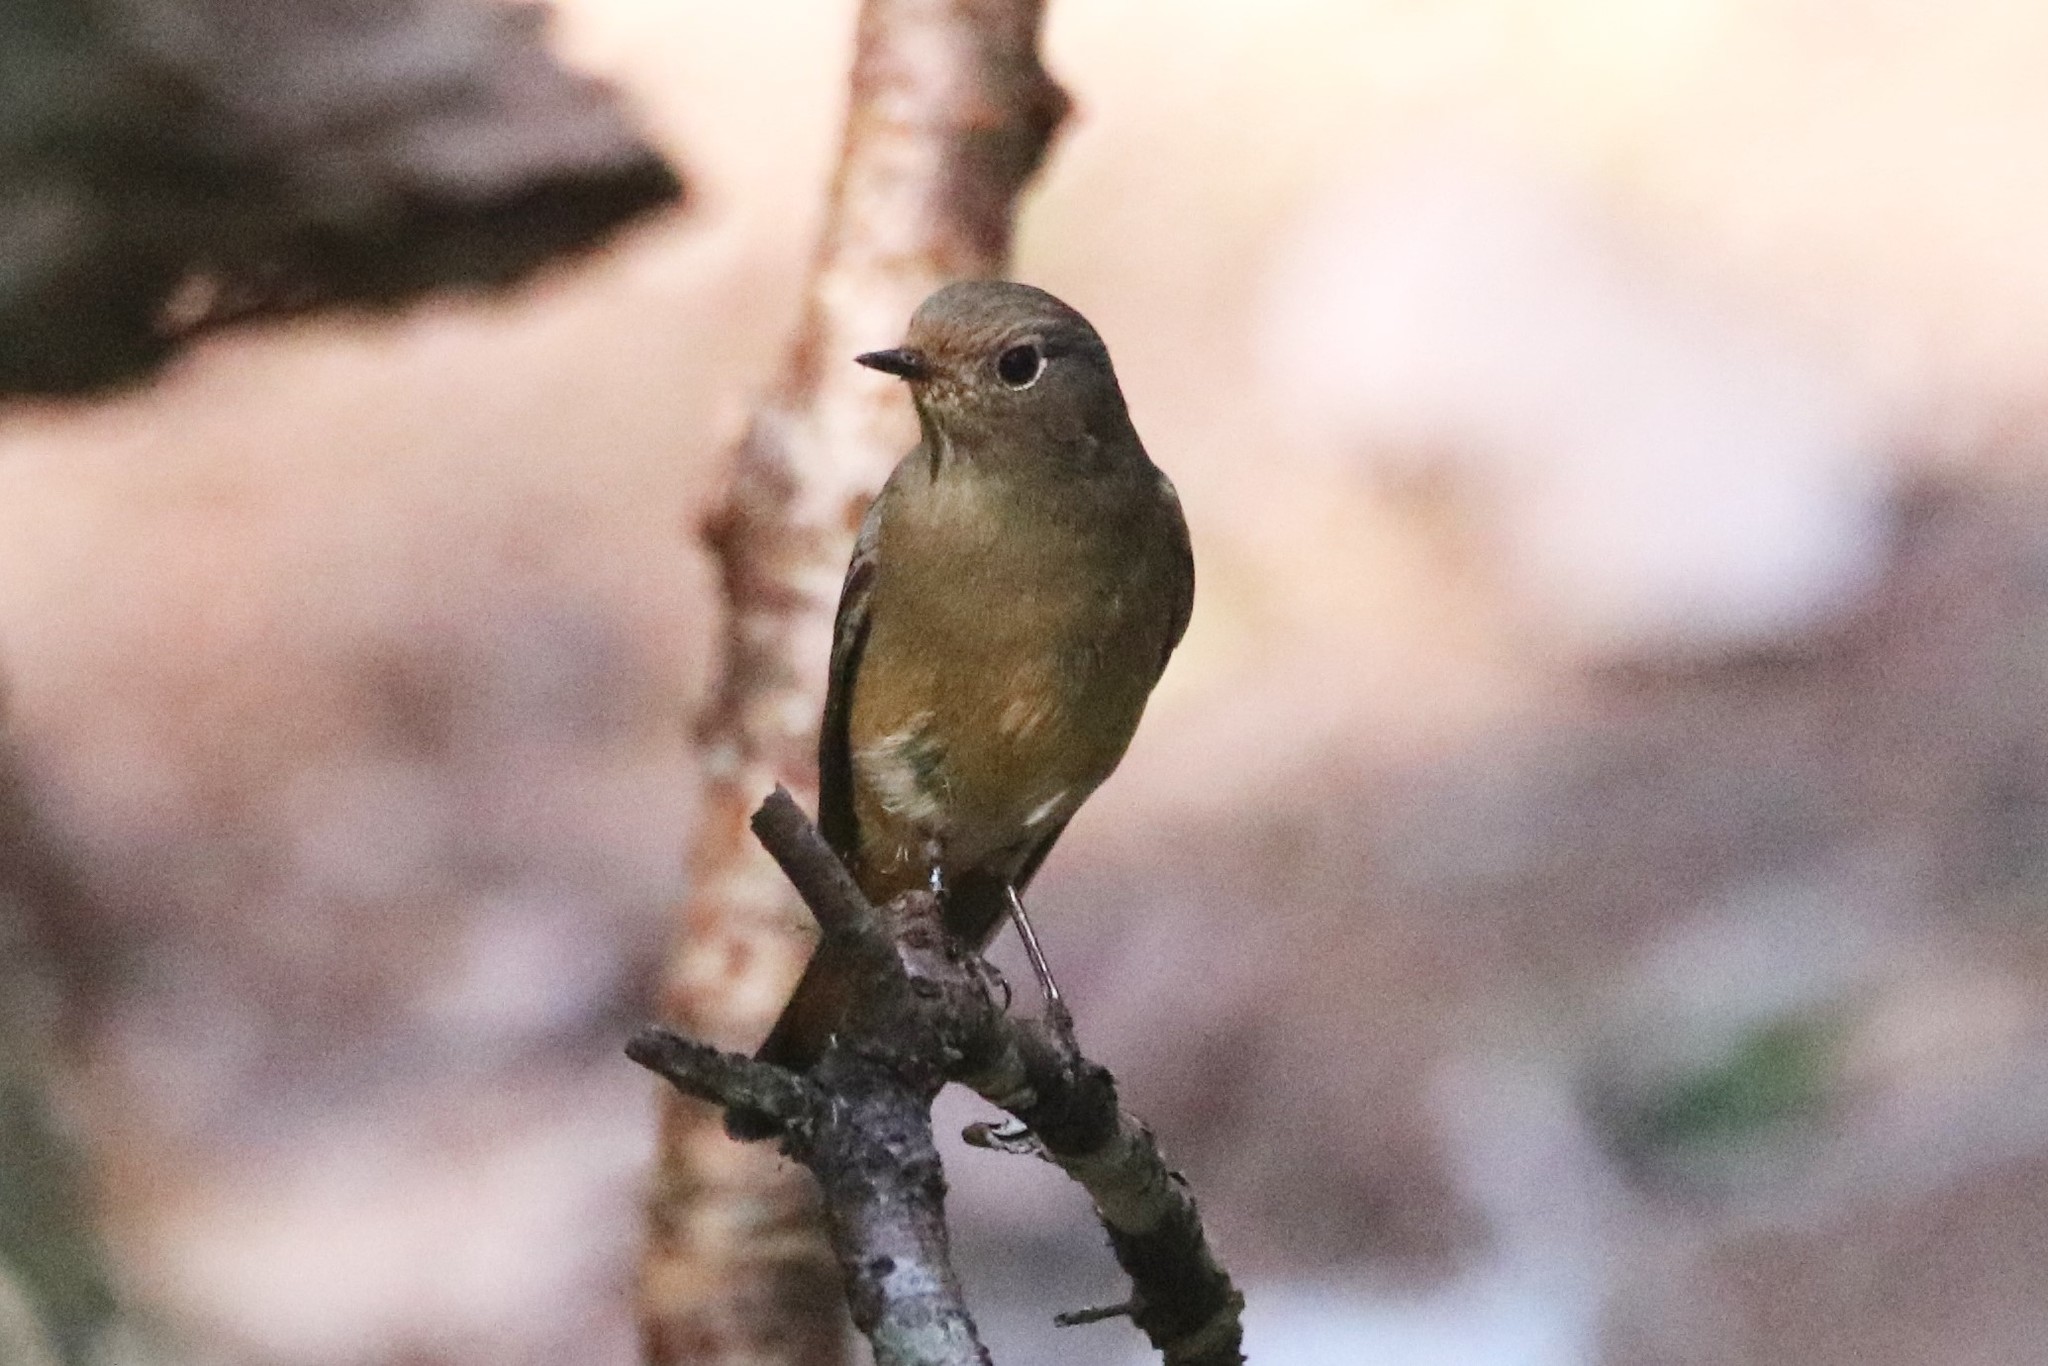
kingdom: Animalia
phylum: Chordata
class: Aves
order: Passeriformes
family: Muscicapidae
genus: Phoenicurus
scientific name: Phoenicurus frontalis
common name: Blue-fronted redstart
